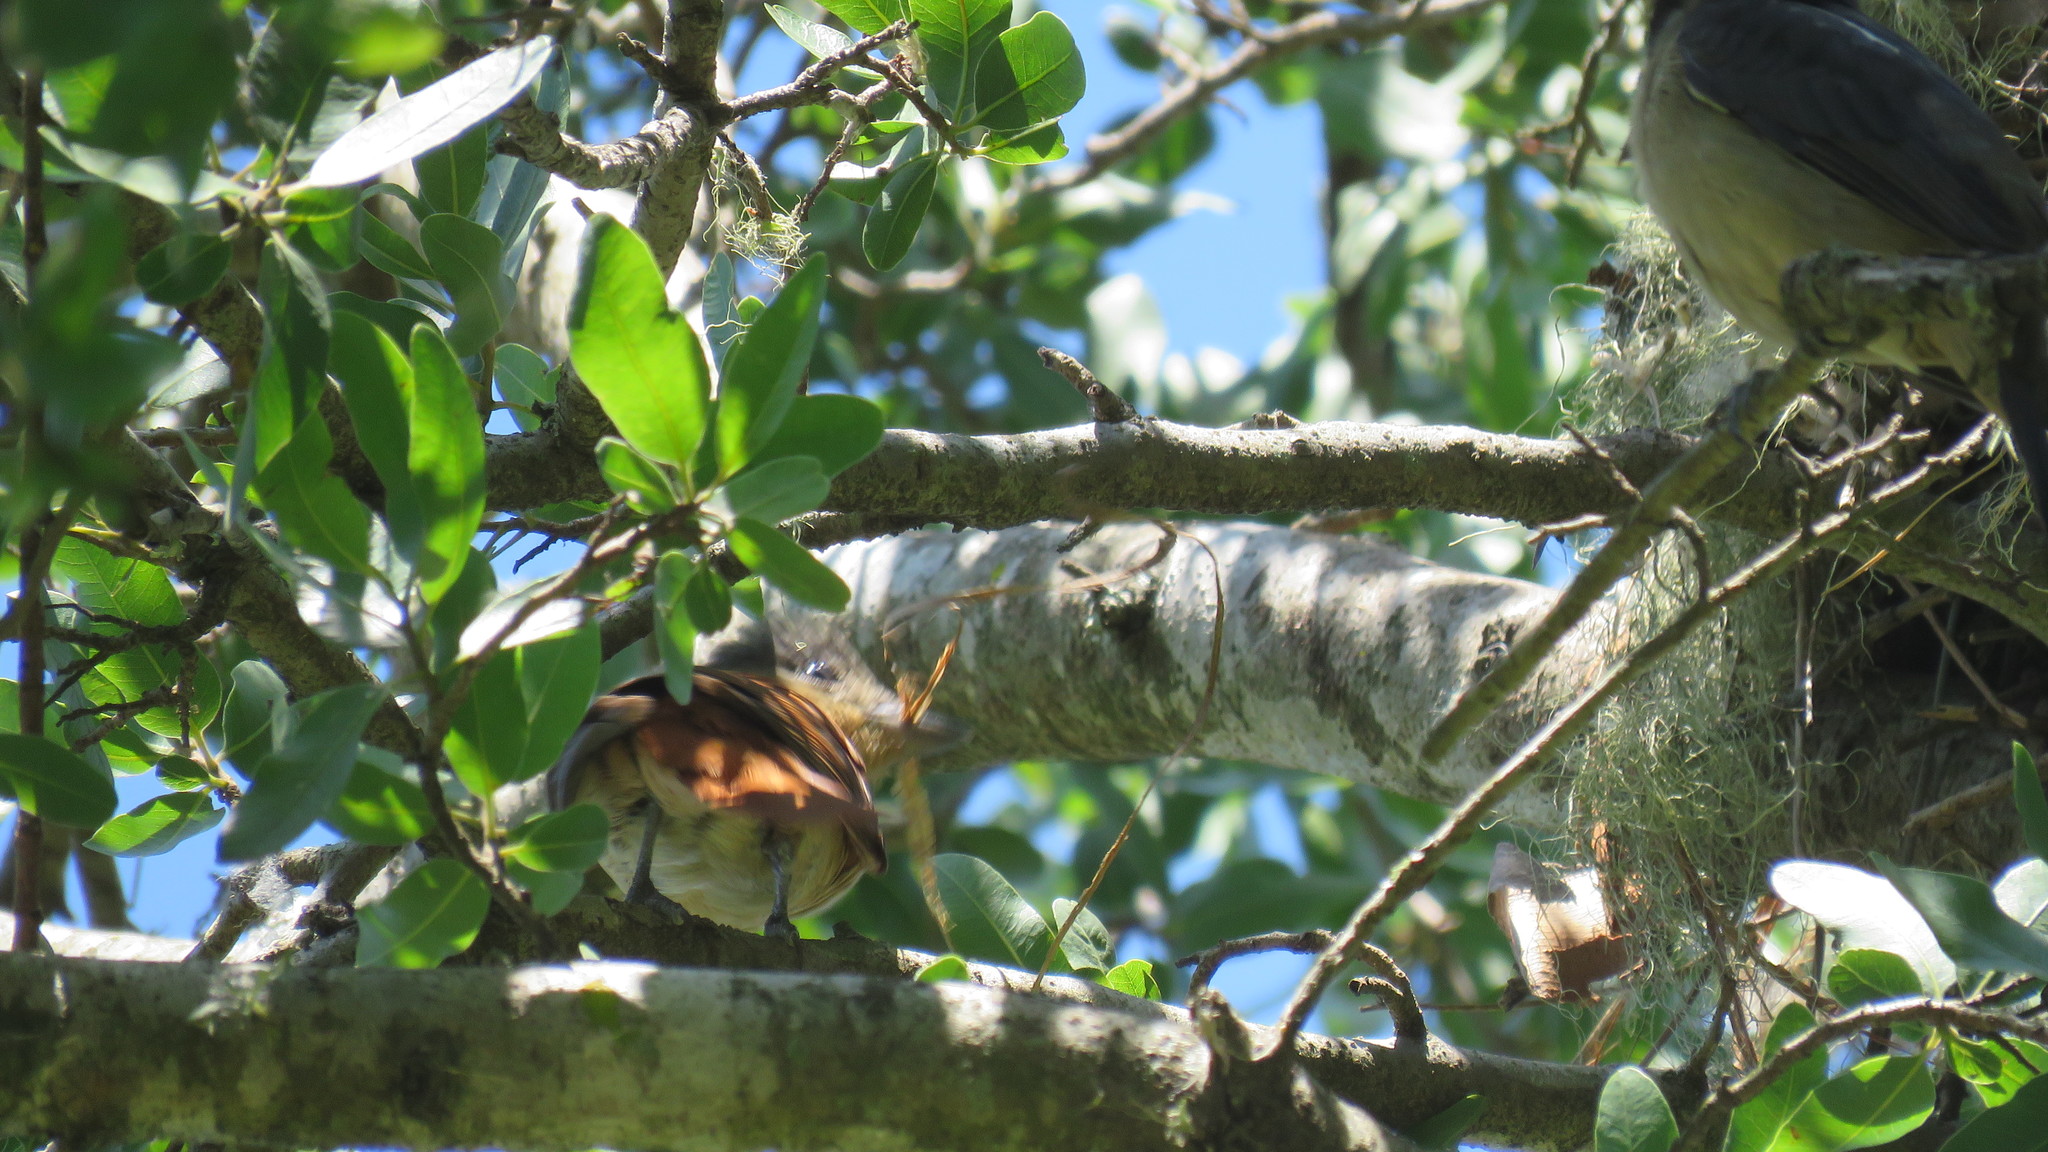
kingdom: Animalia
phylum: Chordata
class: Aves
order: Passeriformes
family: Cotingidae
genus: Pachyramphus
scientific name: Pachyramphus validus
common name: Crested becard
